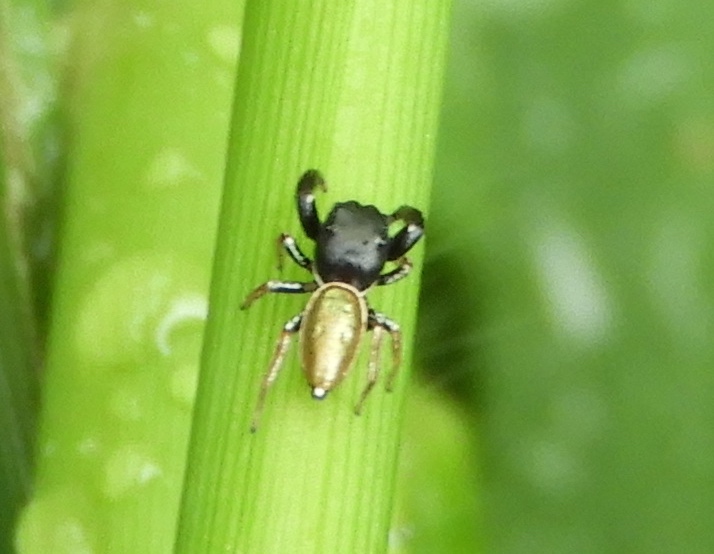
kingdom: Animalia
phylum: Arthropoda
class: Arachnida
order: Araneae
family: Salticidae
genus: Sassacus
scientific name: Sassacus vitis
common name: Jumping spiders
